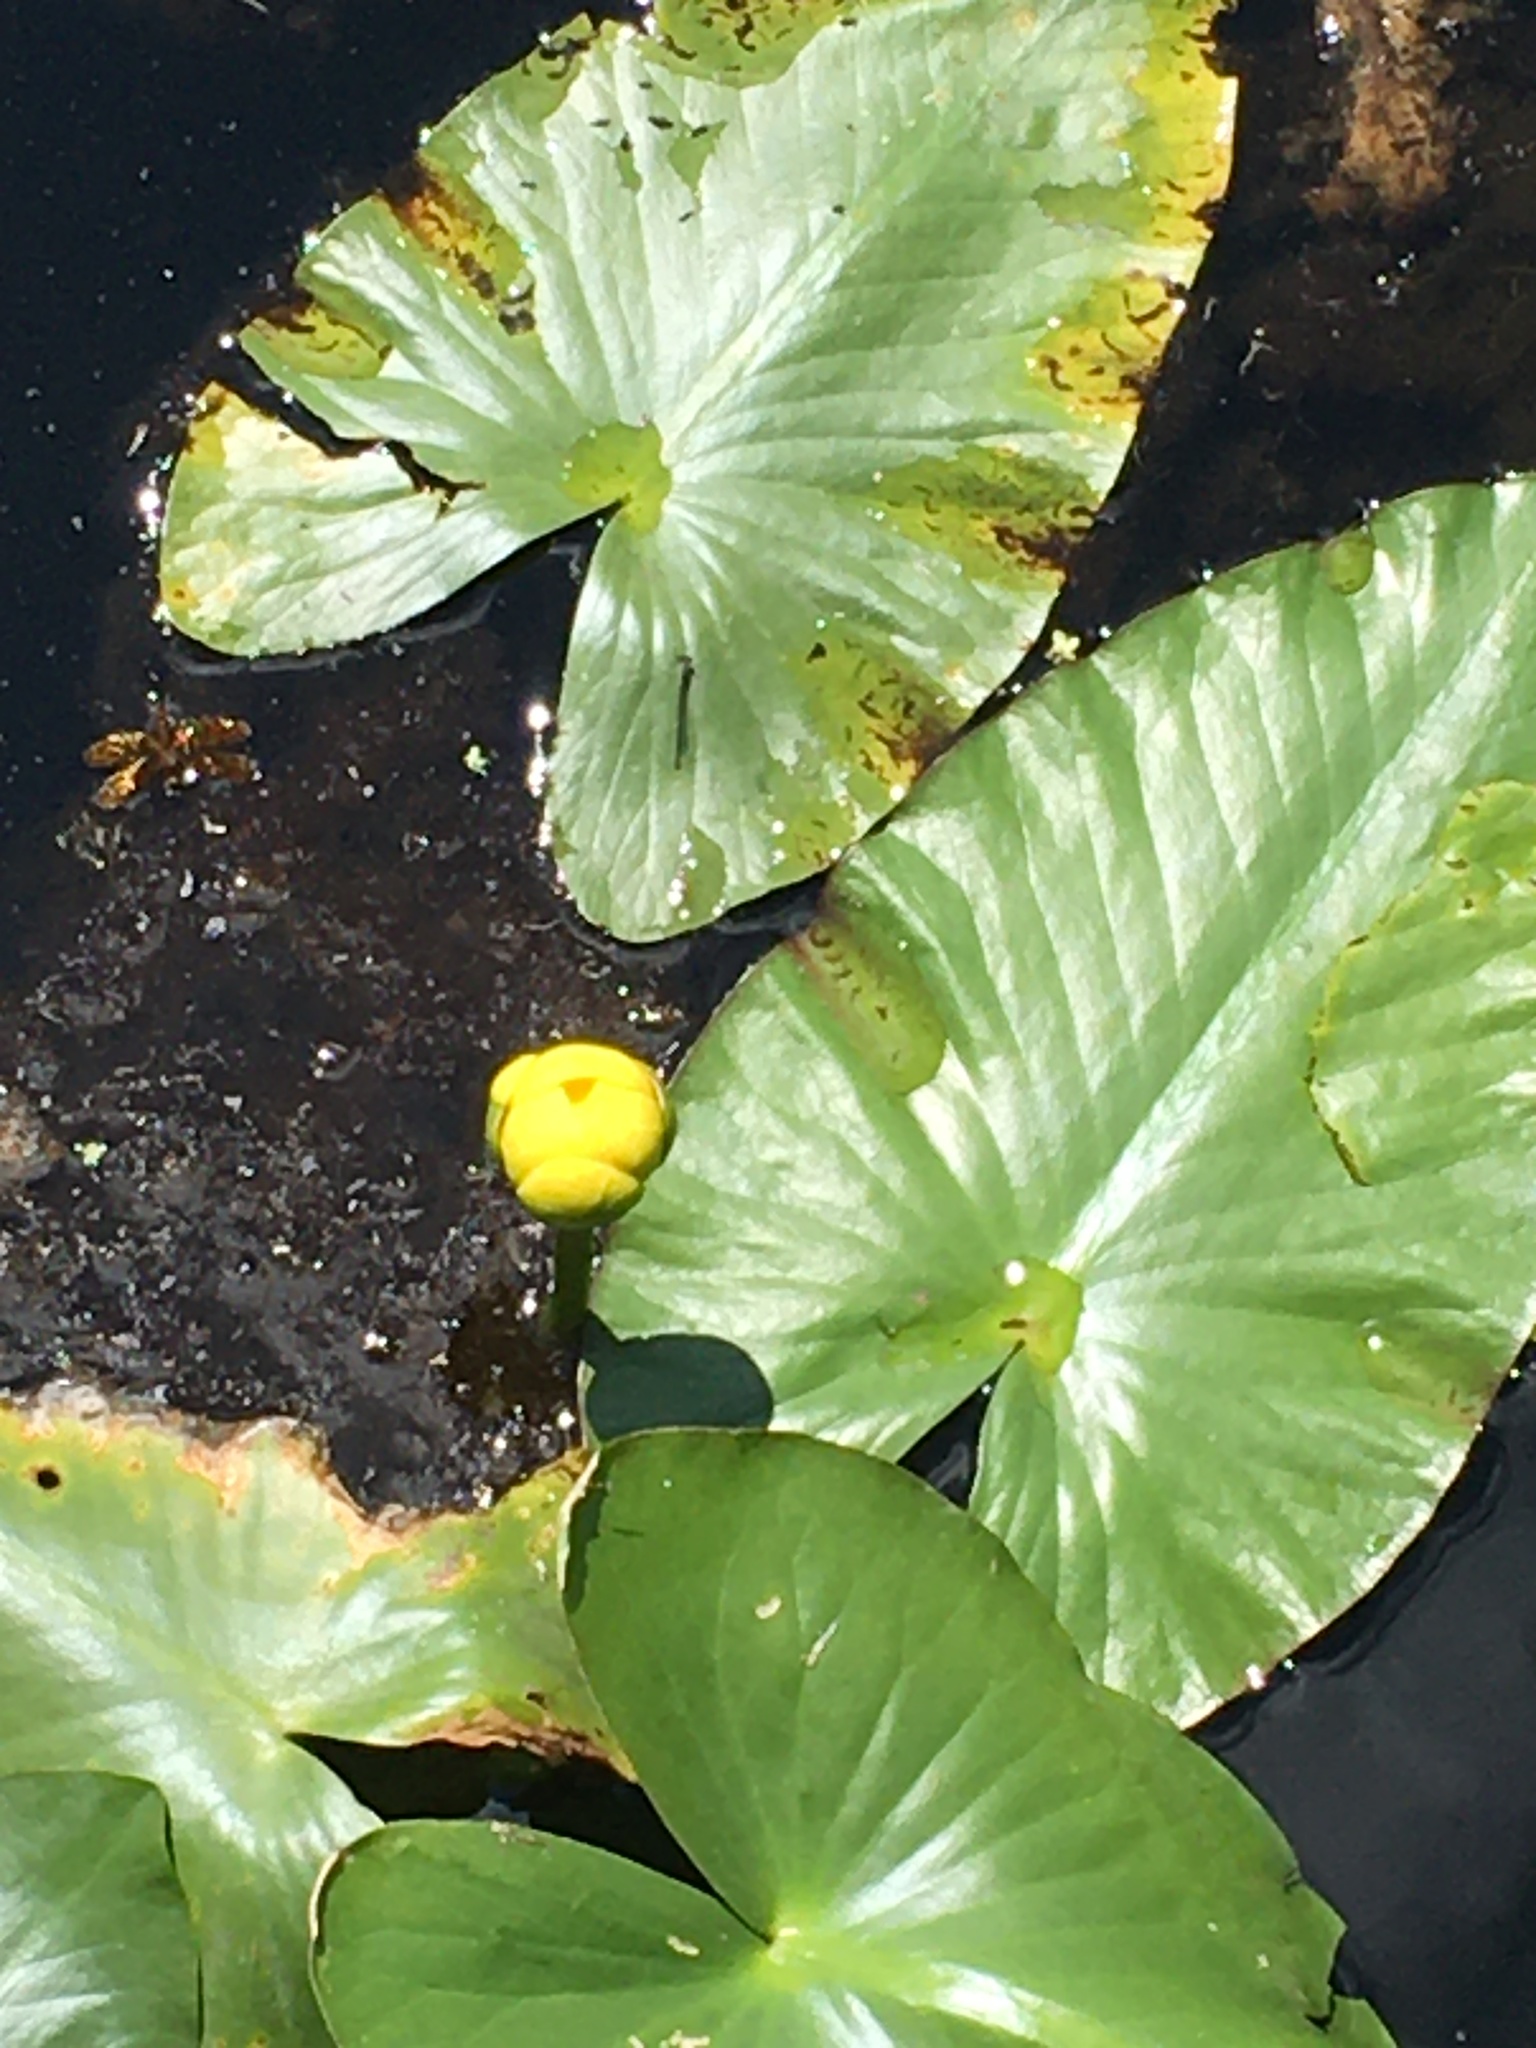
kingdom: Plantae
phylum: Tracheophyta
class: Magnoliopsida
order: Nymphaeales
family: Nymphaeaceae
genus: Nuphar
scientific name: Nuphar advena
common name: Spatter-dock
